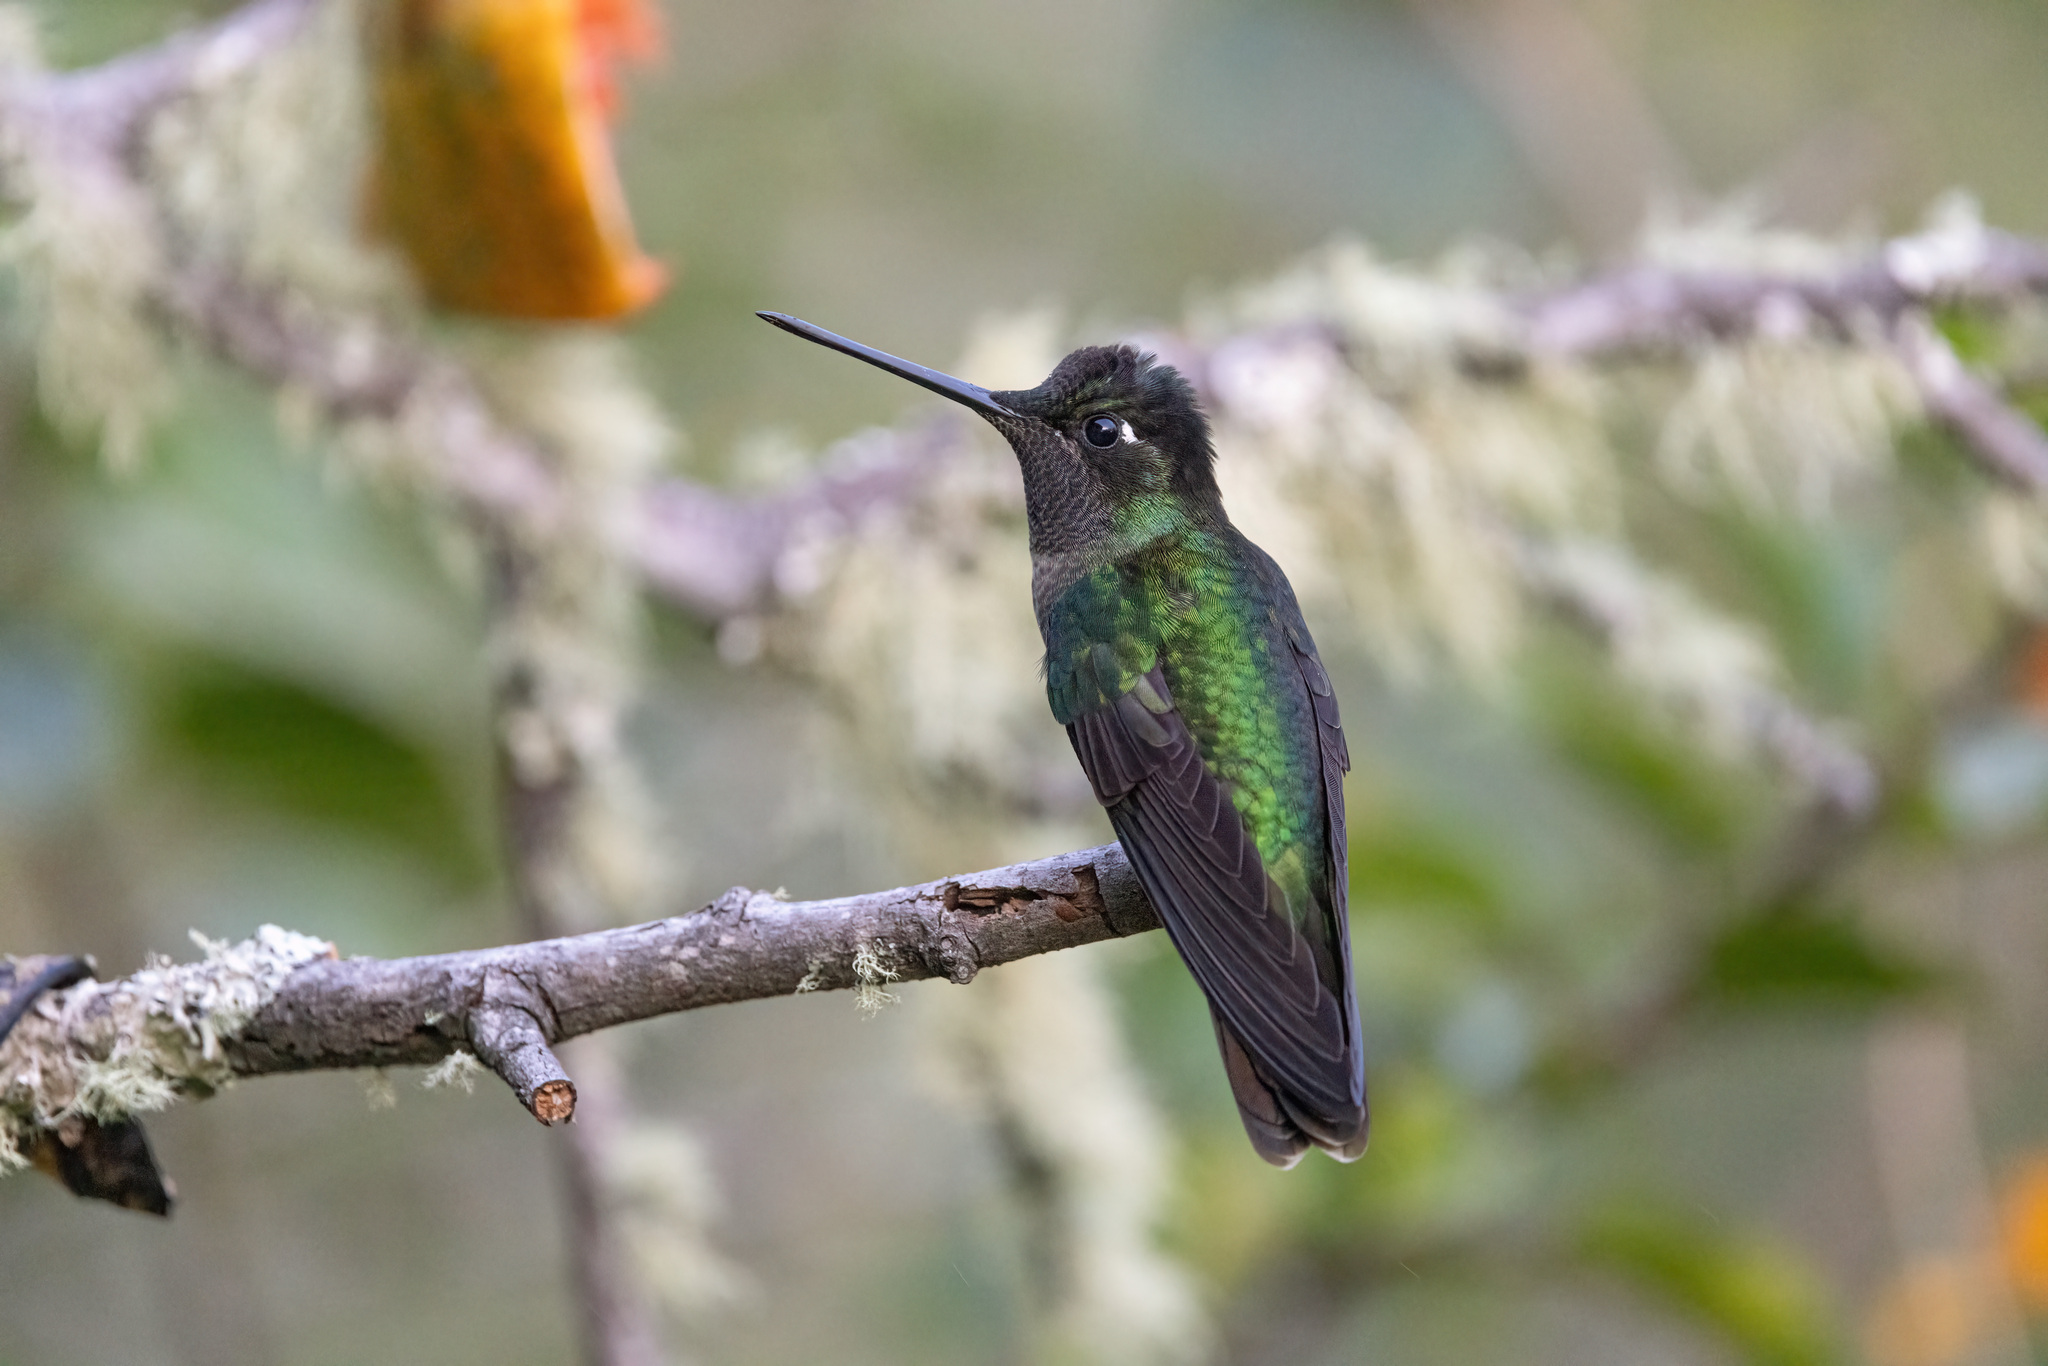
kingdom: Animalia
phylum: Chordata
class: Aves
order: Apodiformes
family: Trochilidae
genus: Eugenes
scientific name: Eugenes spectabilis
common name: Talamanca hummingbird
